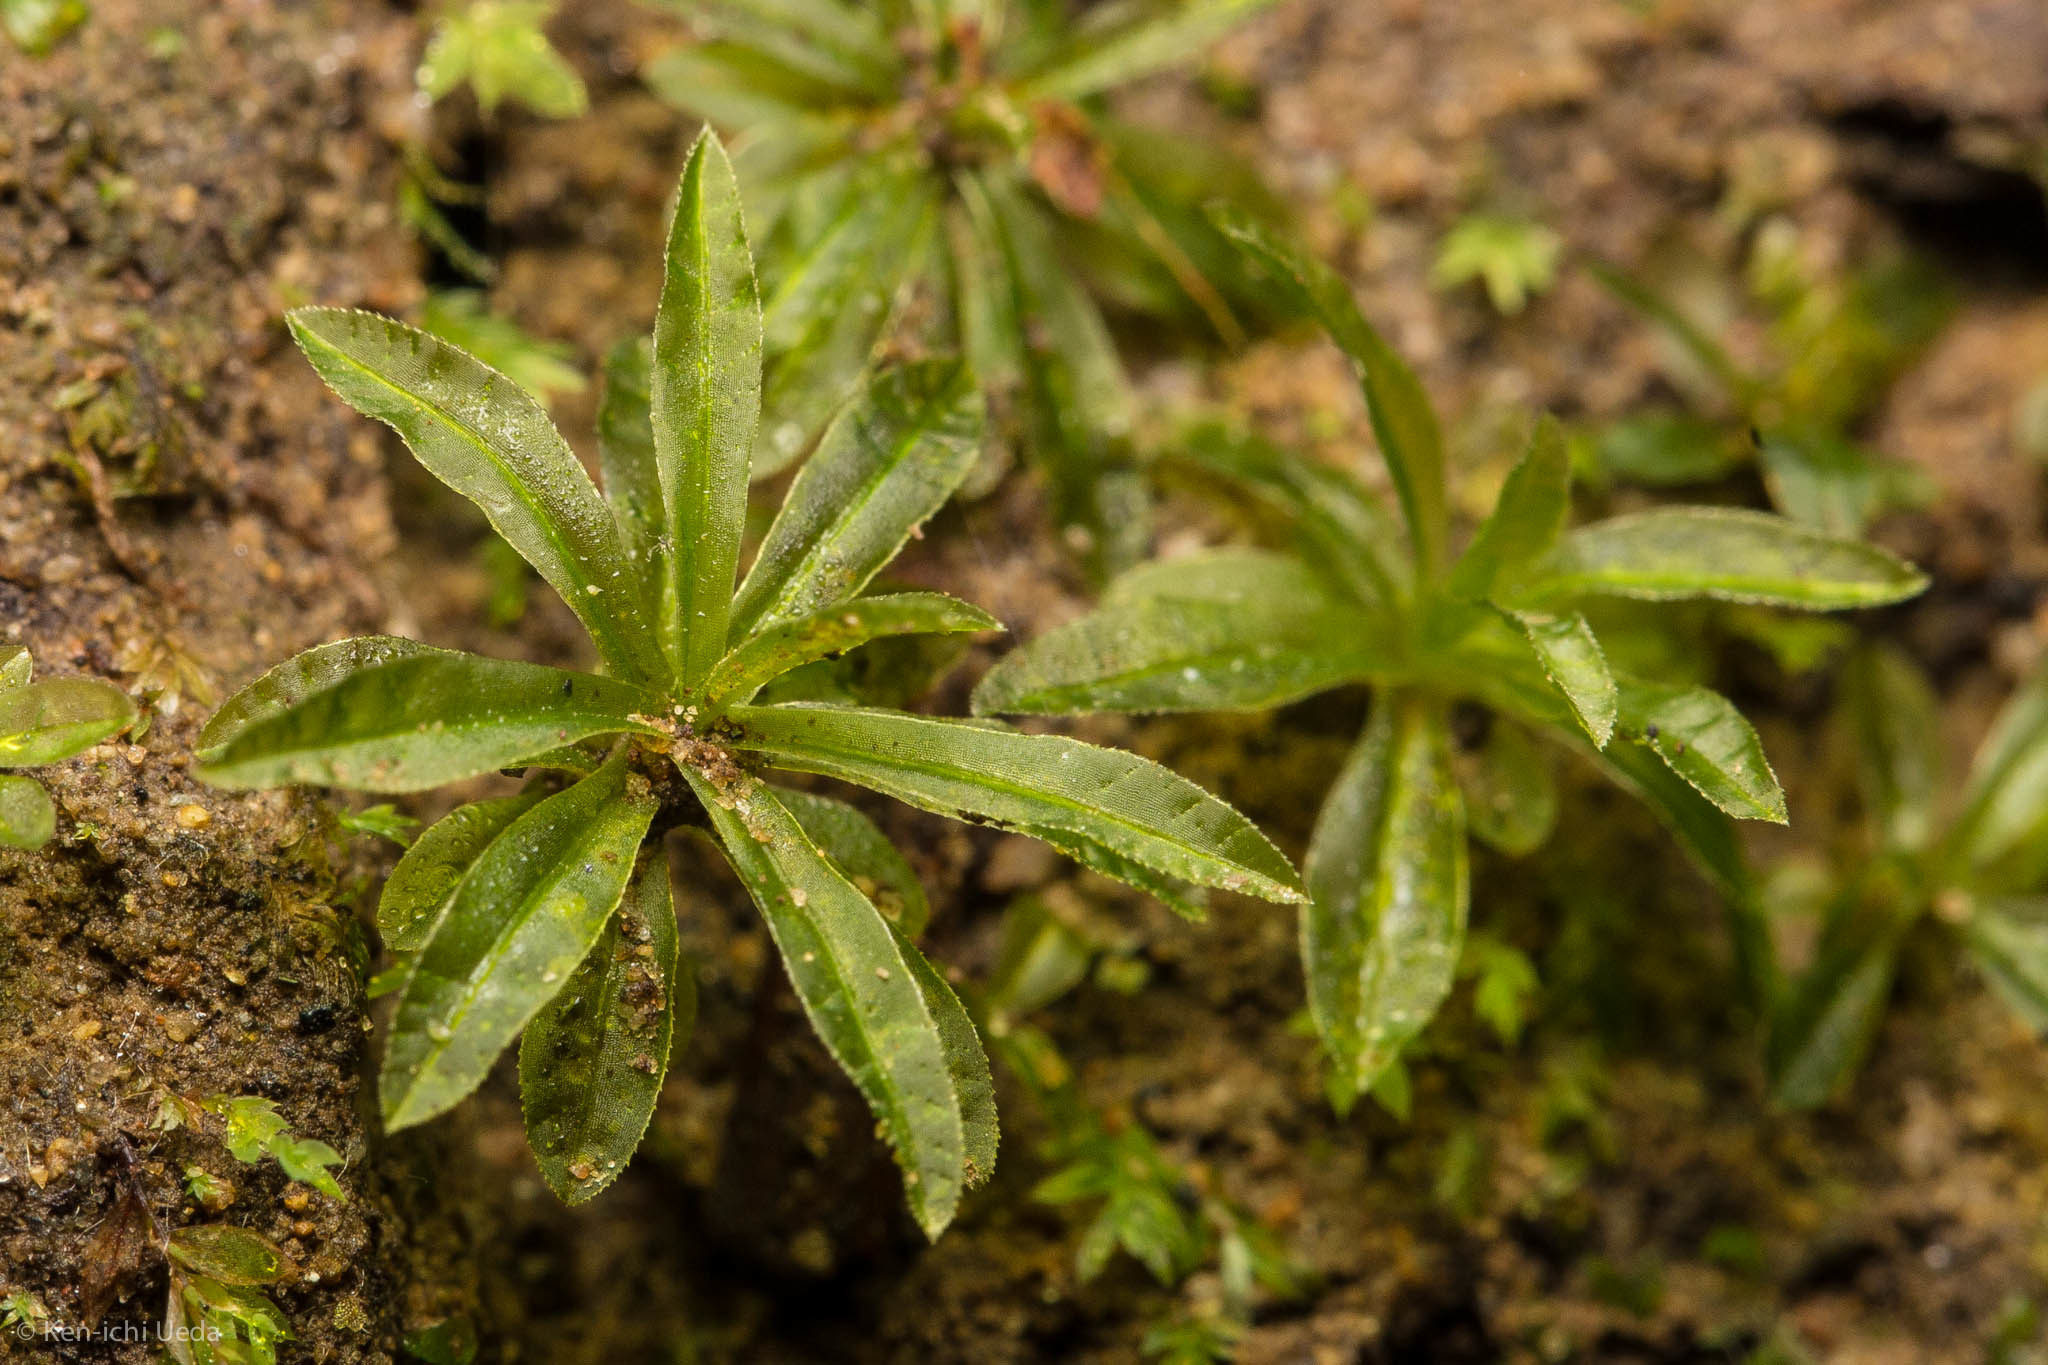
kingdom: Plantae
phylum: Bryophyta
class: Polytrichopsida
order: Polytrichales
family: Polytrichaceae
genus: Atrichum
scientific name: Atrichum selwynii
